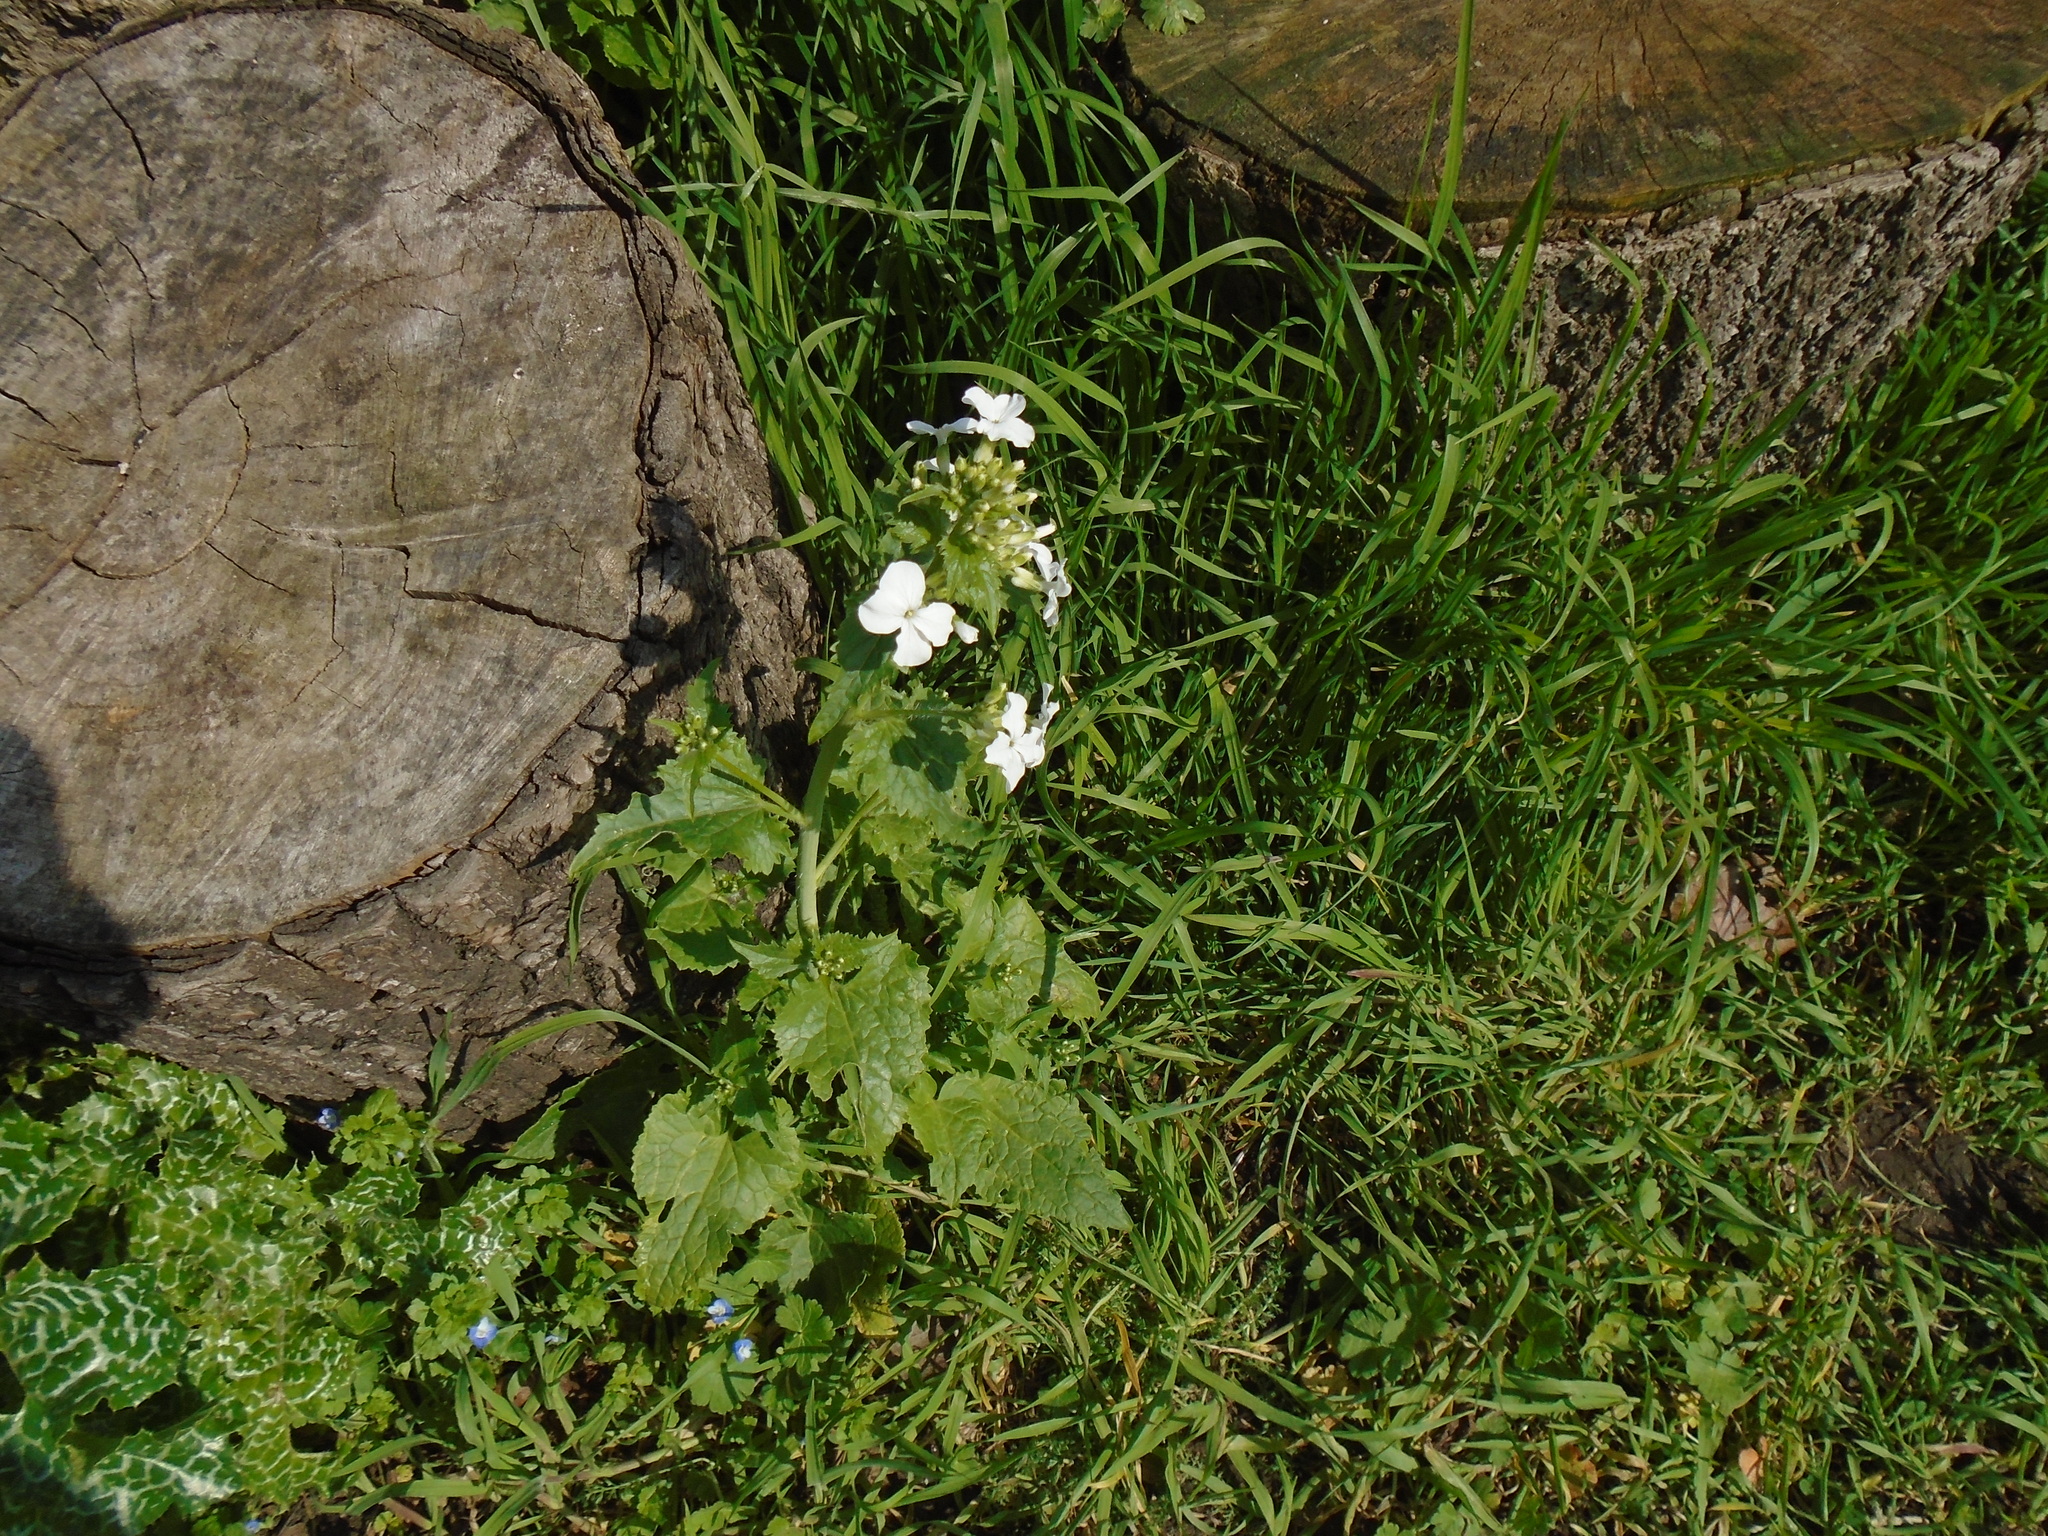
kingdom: Plantae
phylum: Tracheophyta
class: Magnoliopsida
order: Brassicales
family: Brassicaceae
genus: Lunaria
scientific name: Lunaria annua
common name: Honesty
